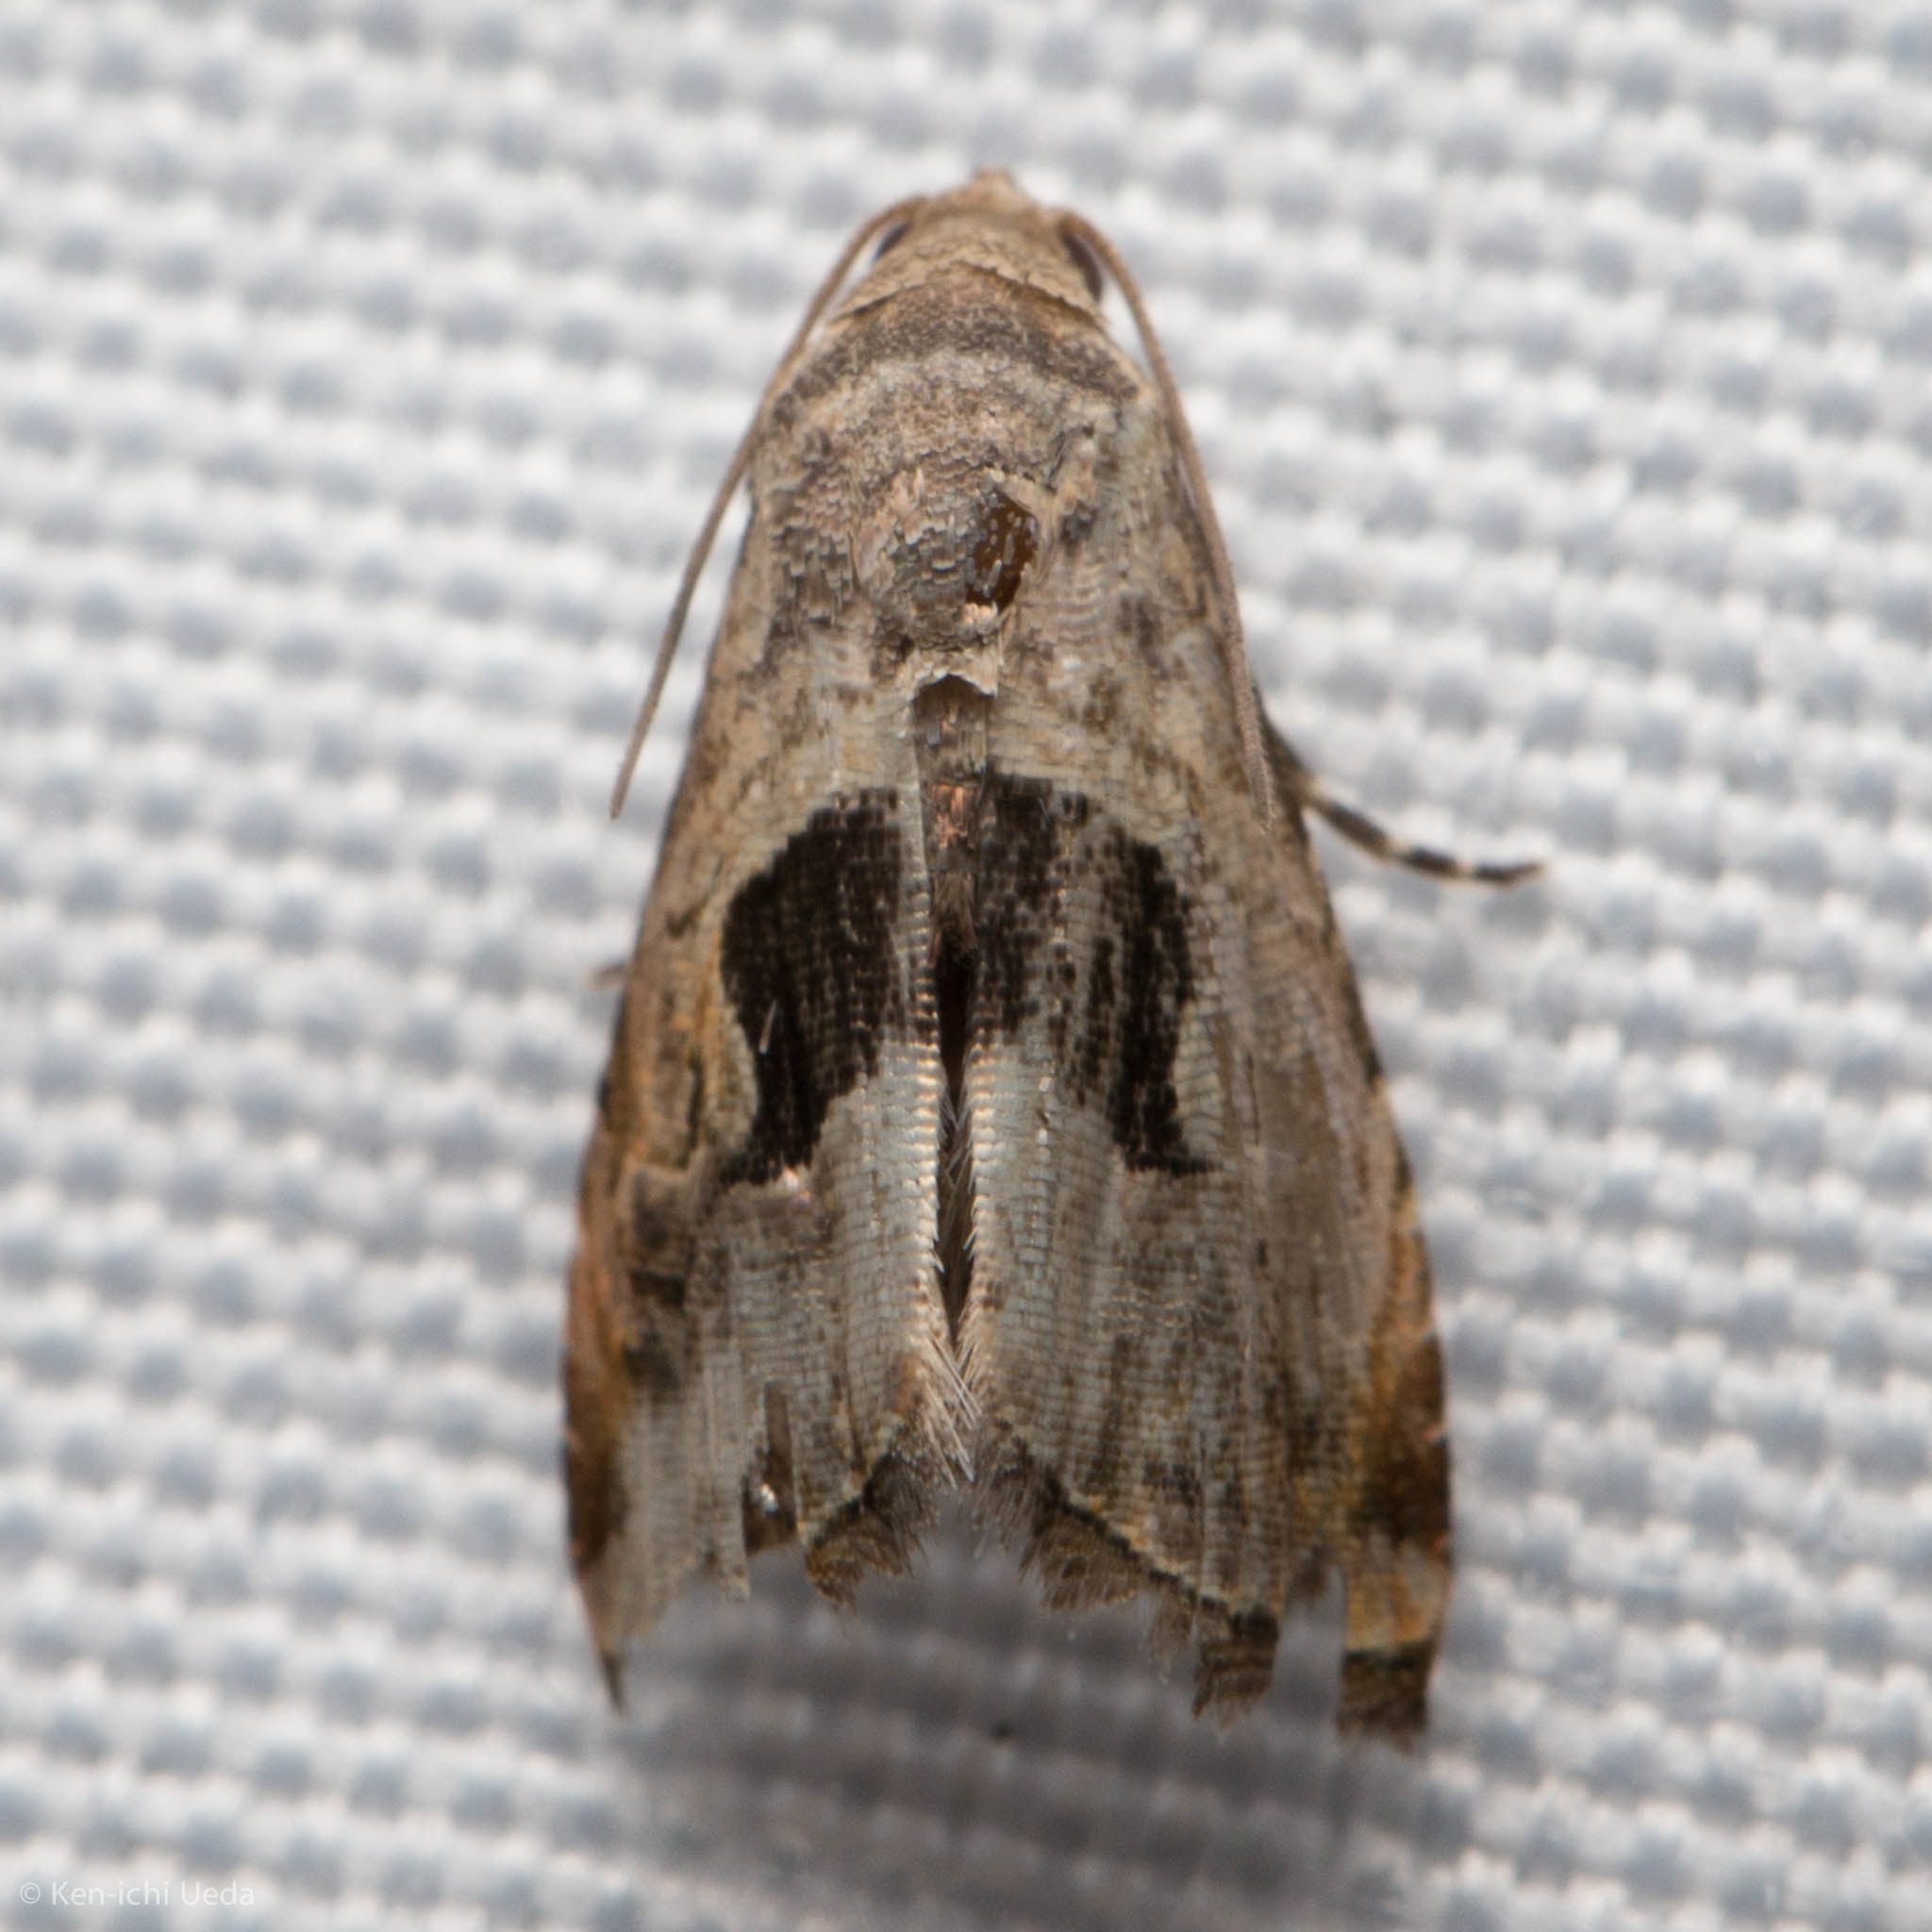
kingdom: Animalia
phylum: Arthropoda
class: Insecta
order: Lepidoptera
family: Noctuidae
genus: Tripudia
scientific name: Tripudia quadrifera
